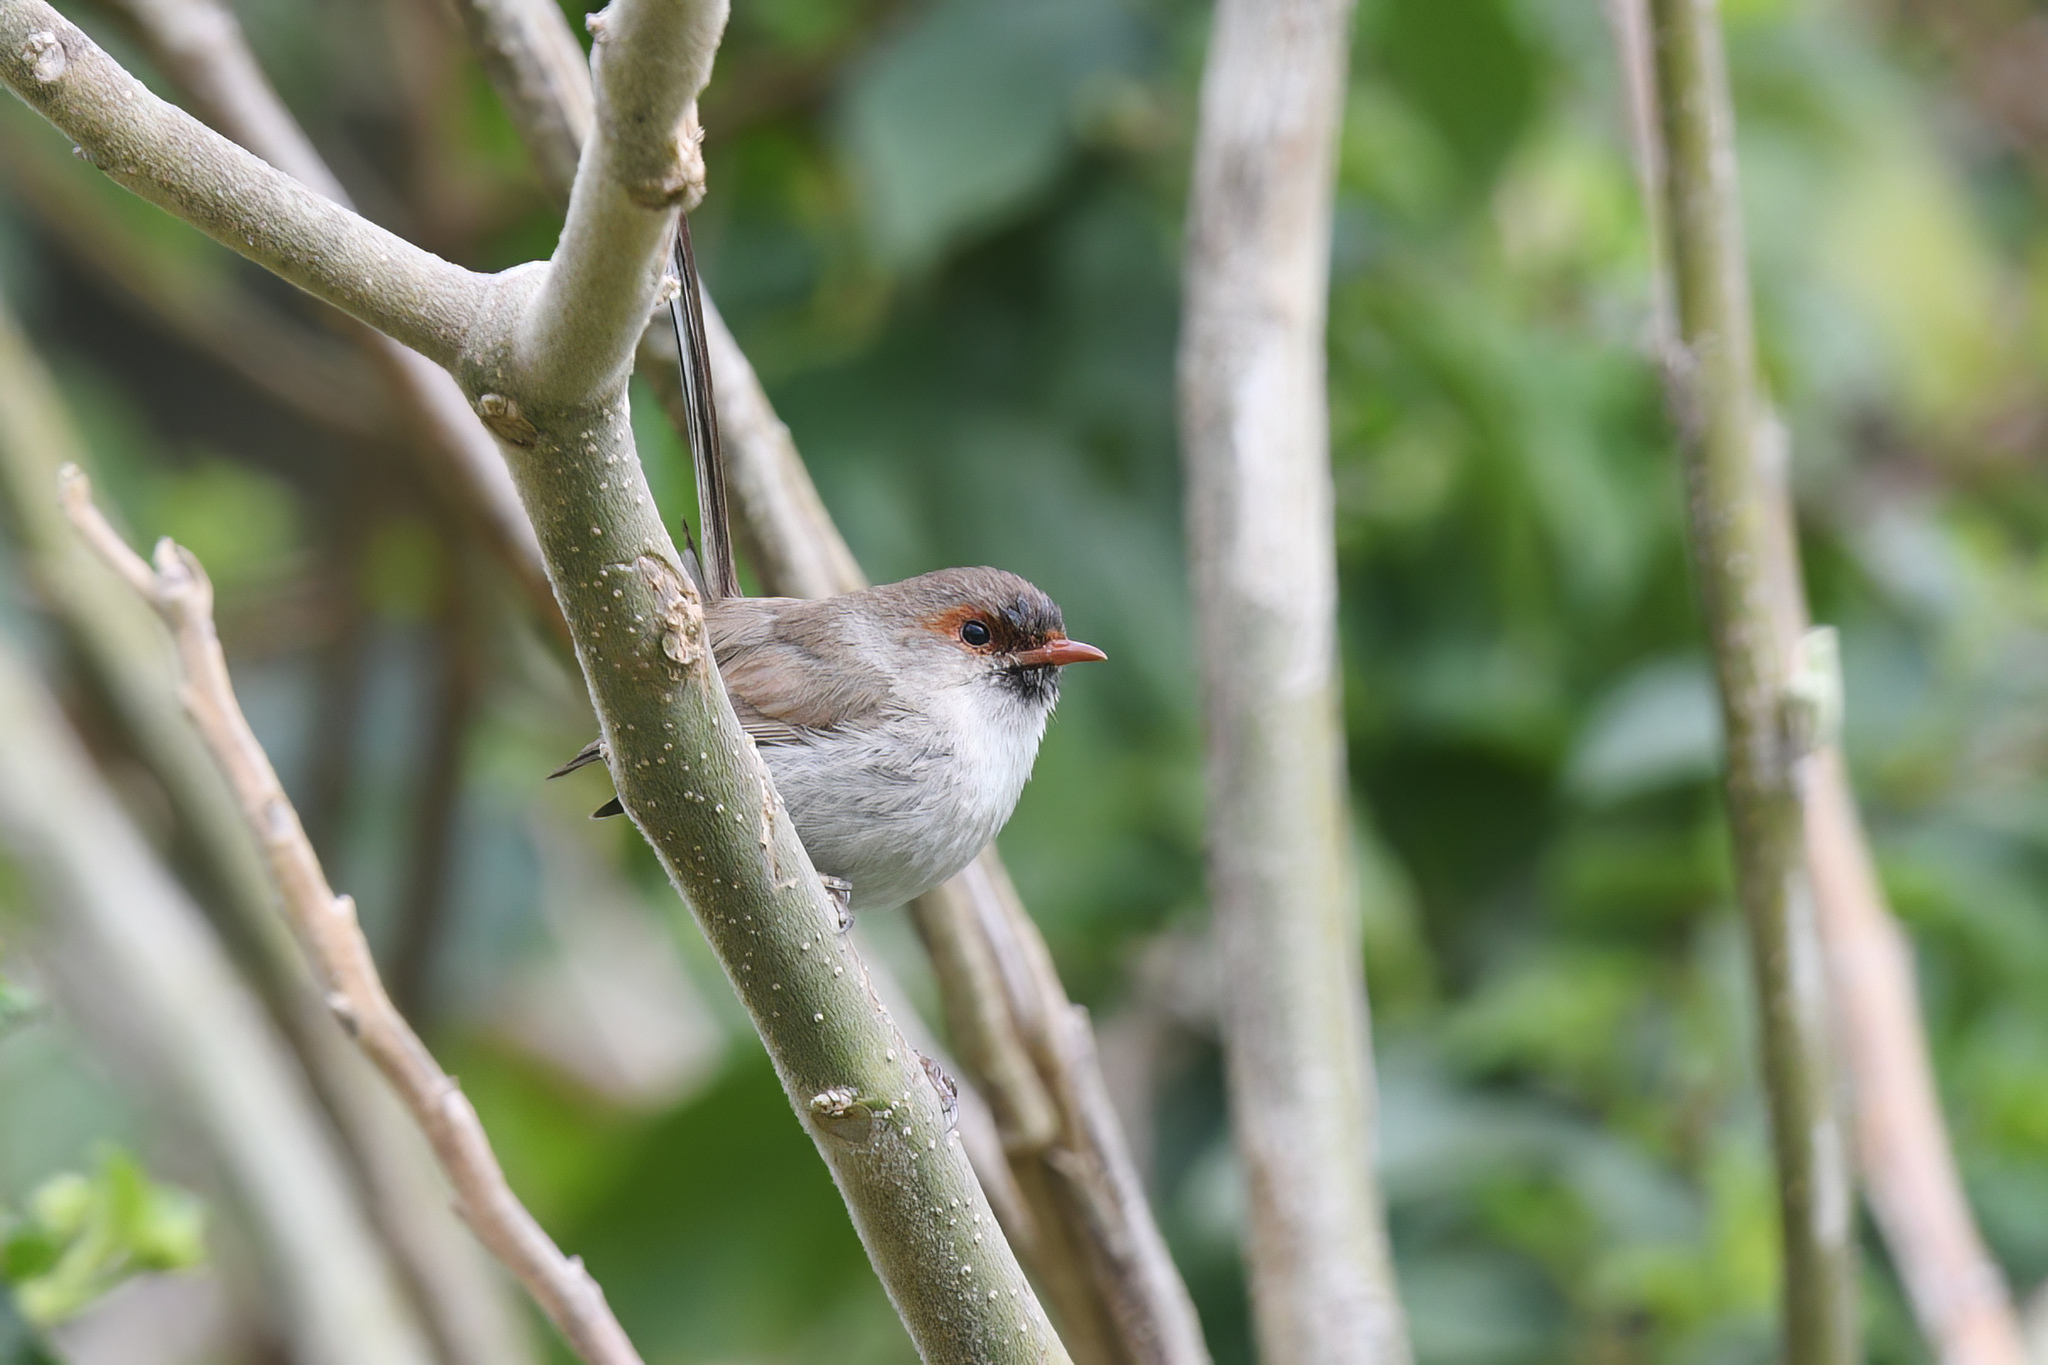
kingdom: Animalia
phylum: Chordata
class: Aves
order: Passeriformes
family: Maluridae
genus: Malurus
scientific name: Malurus cyaneus
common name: Superb fairywren
